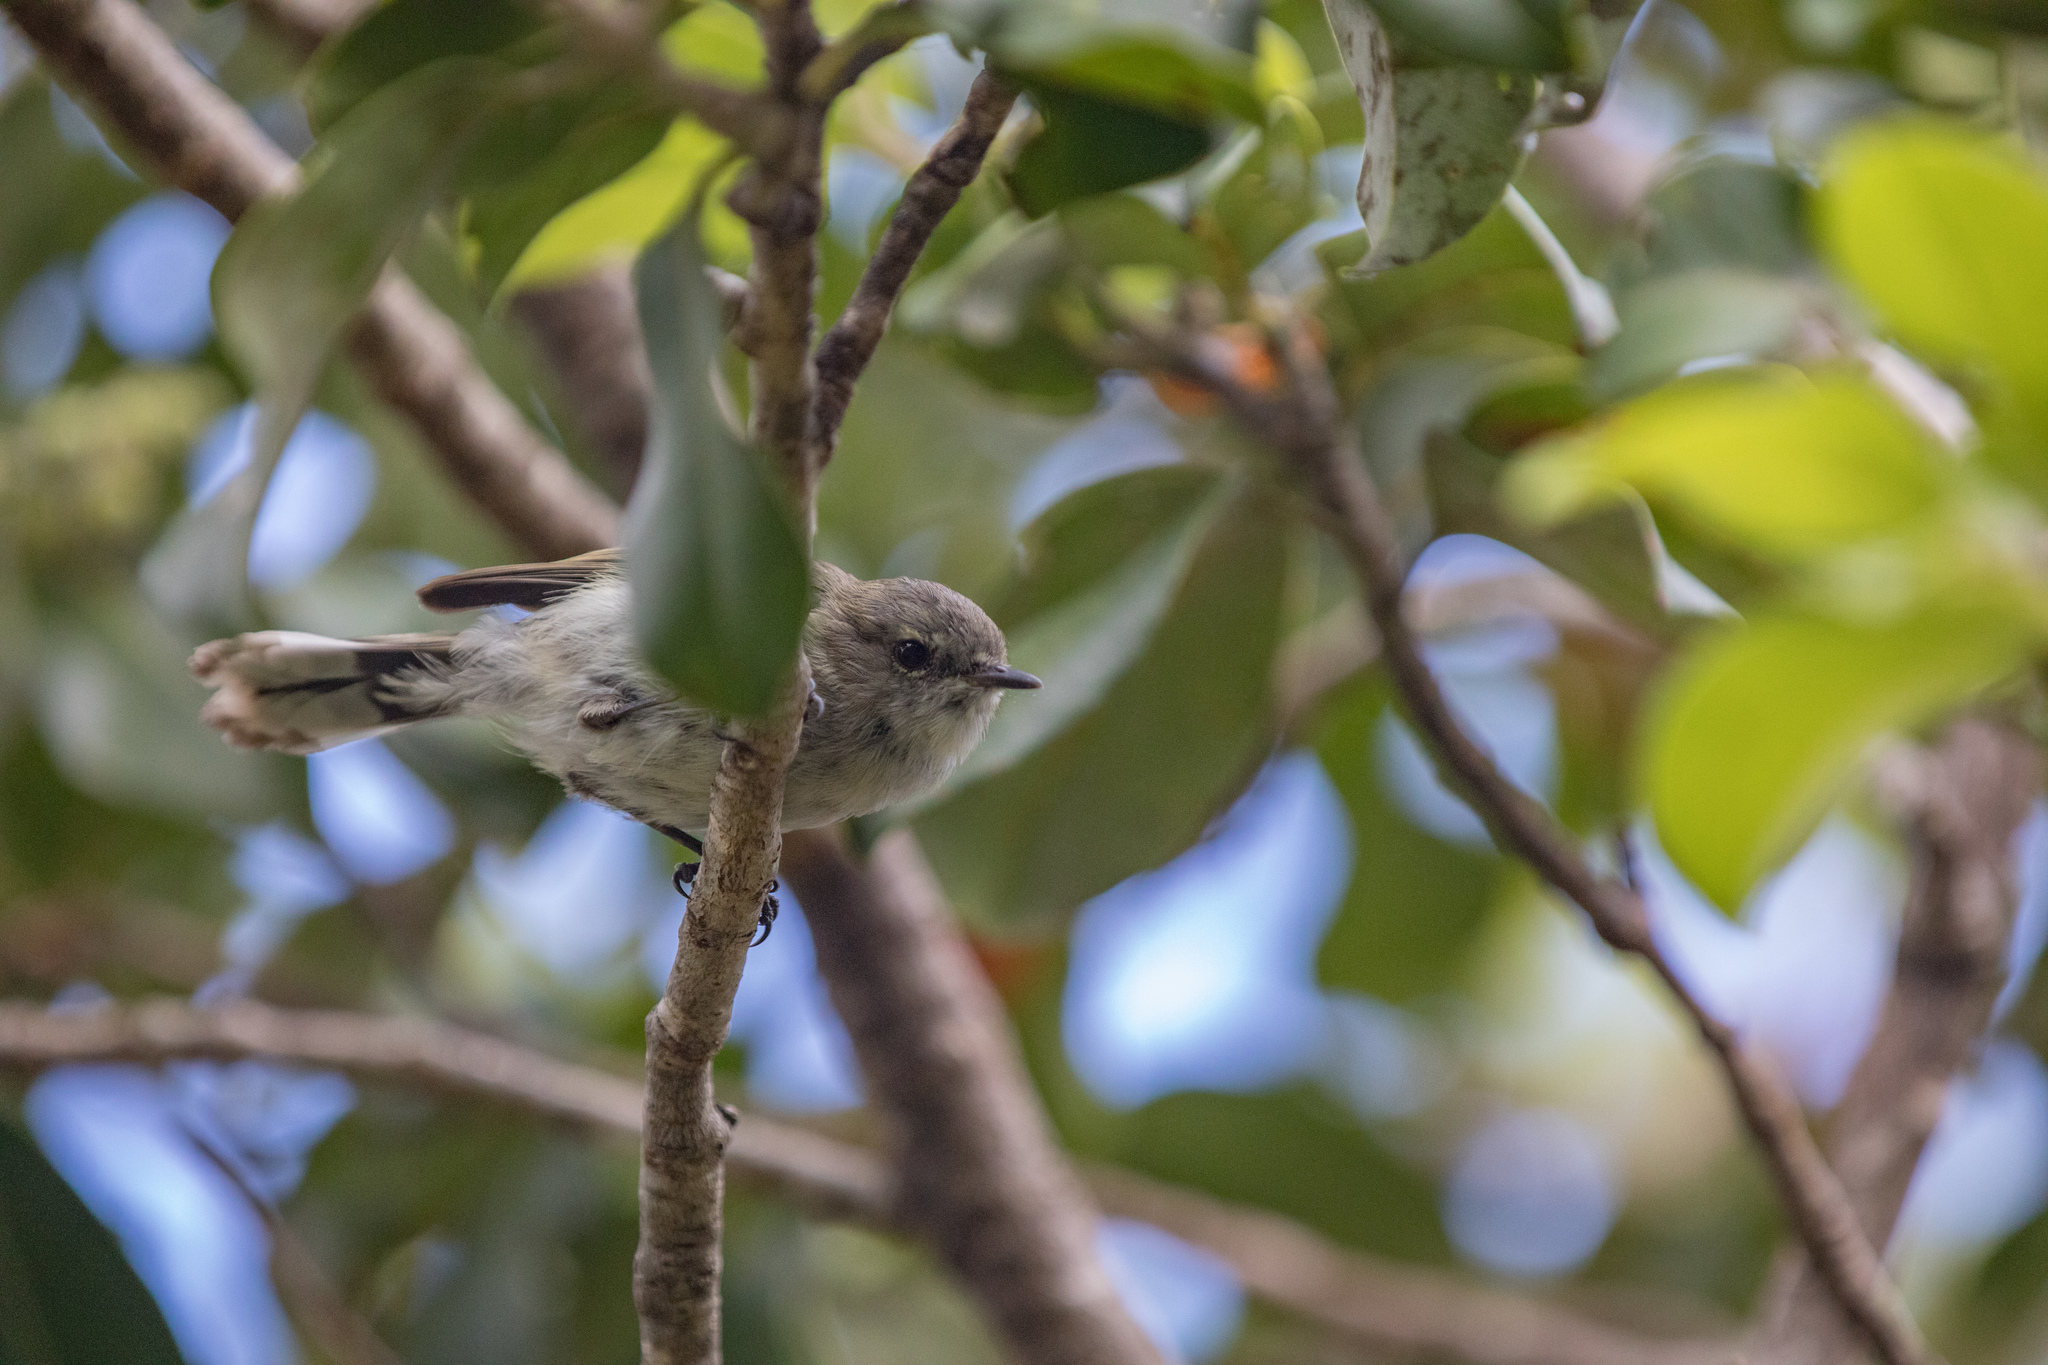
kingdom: Animalia
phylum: Chordata
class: Aves
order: Passeriformes
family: Acanthizidae
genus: Gerygone
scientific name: Gerygone igata
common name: Grey gerygone
